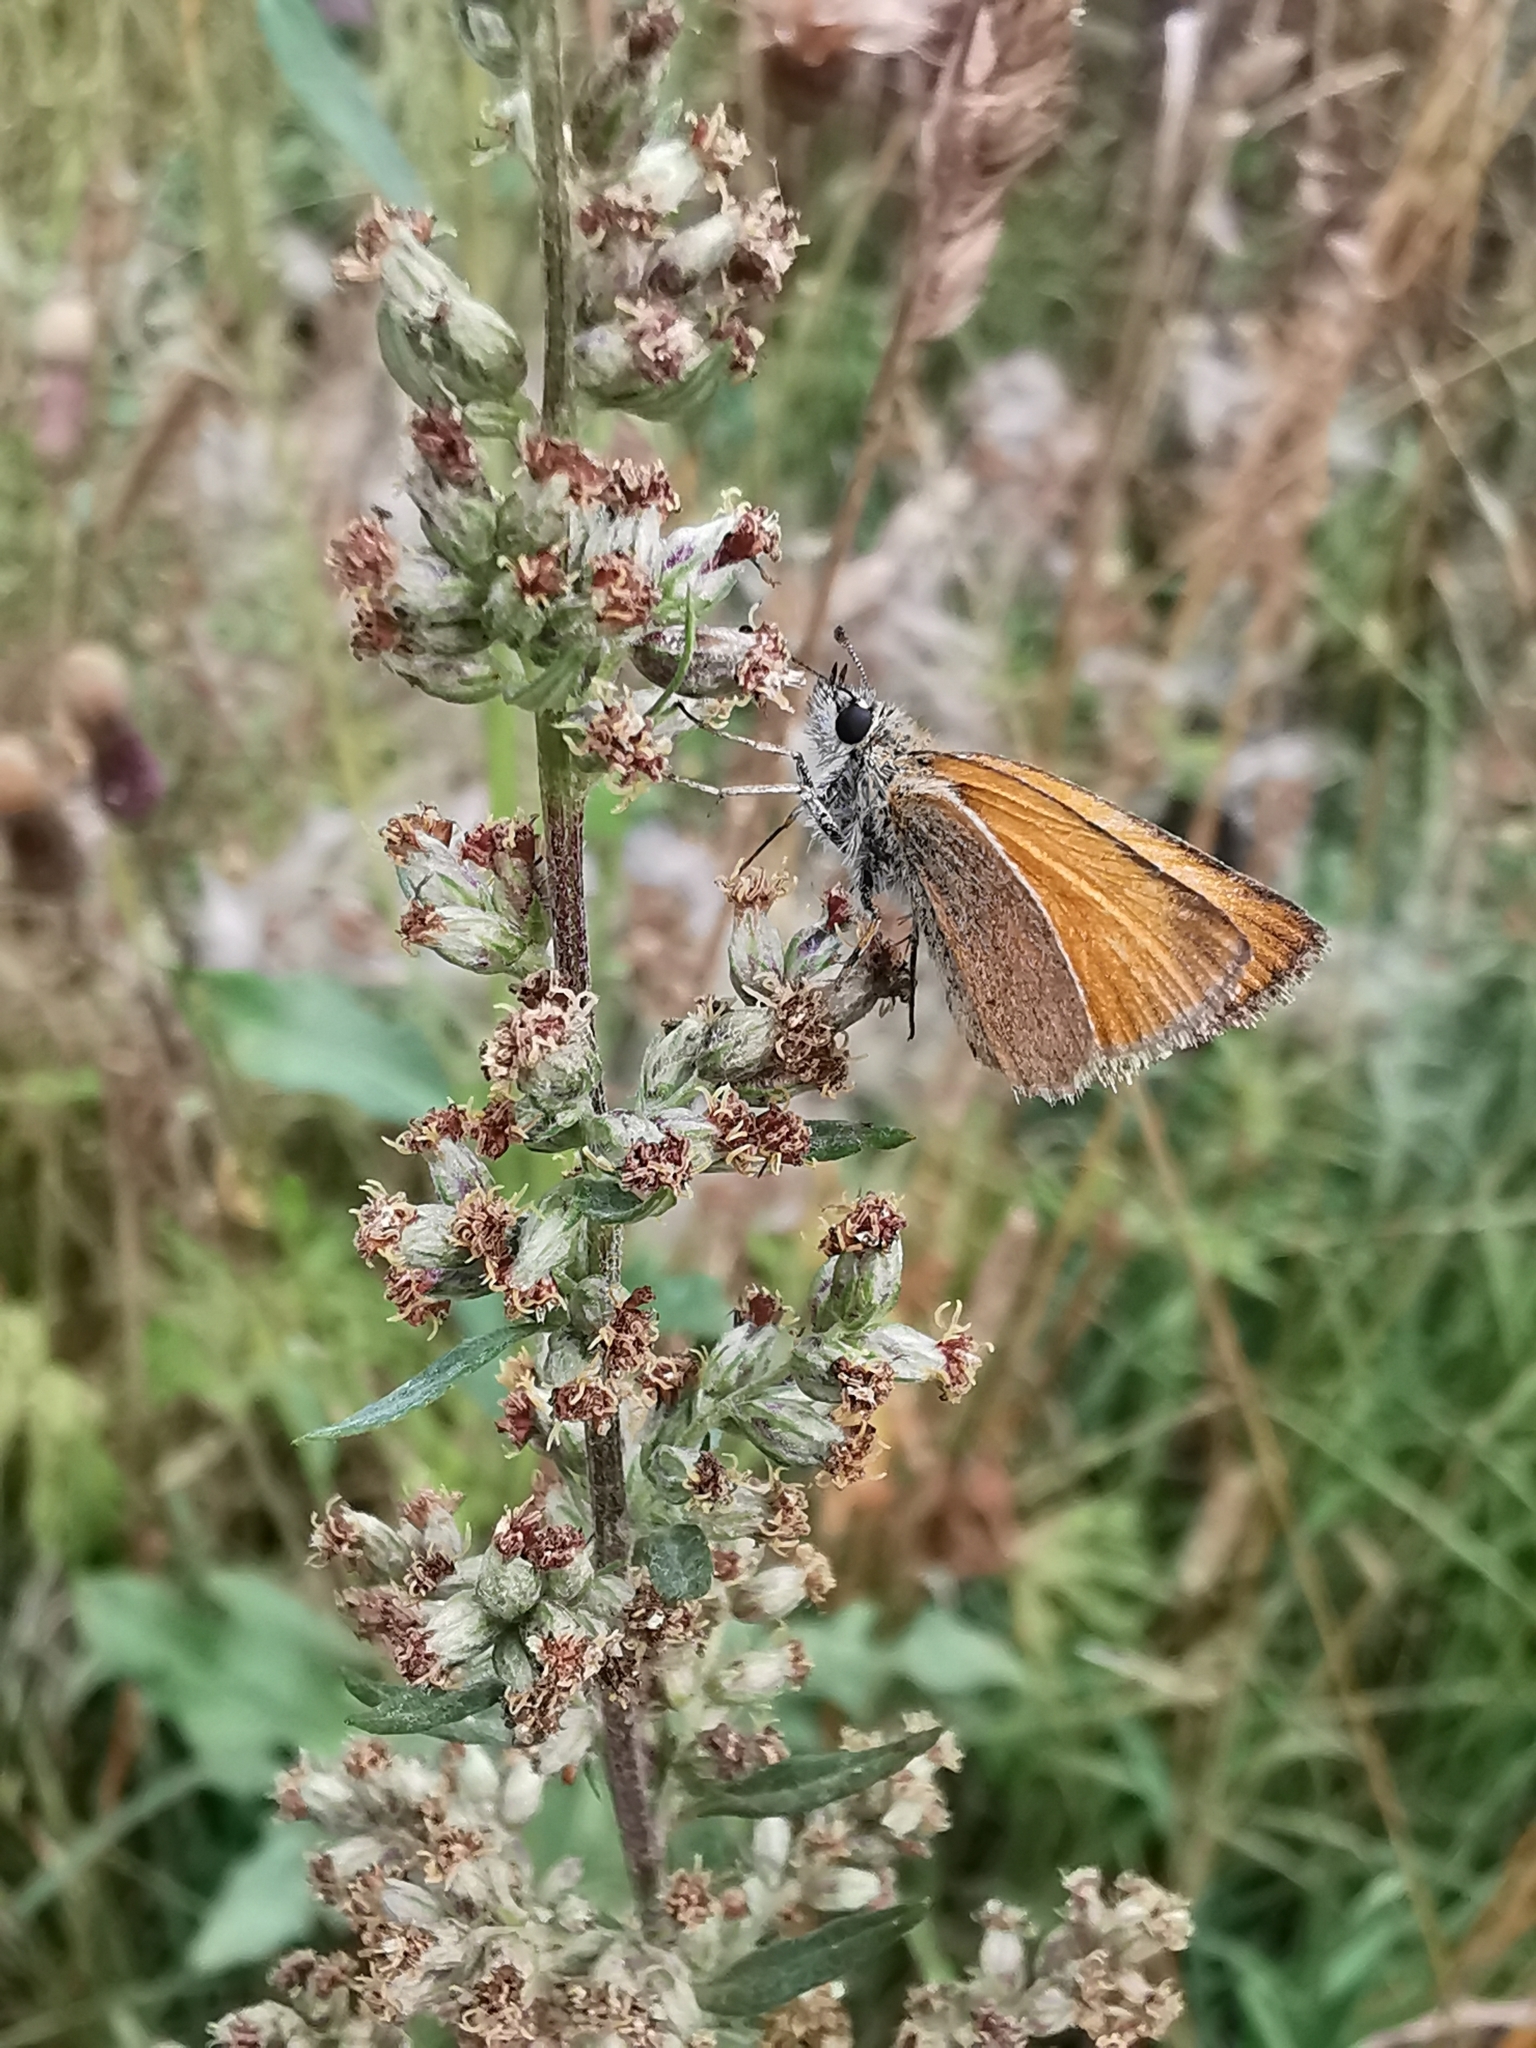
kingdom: Animalia
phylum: Arthropoda
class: Insecta
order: Lepidoptera
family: Hesperiidae
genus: Thymelicus
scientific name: Thymelicus lineola
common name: Essex skipper
